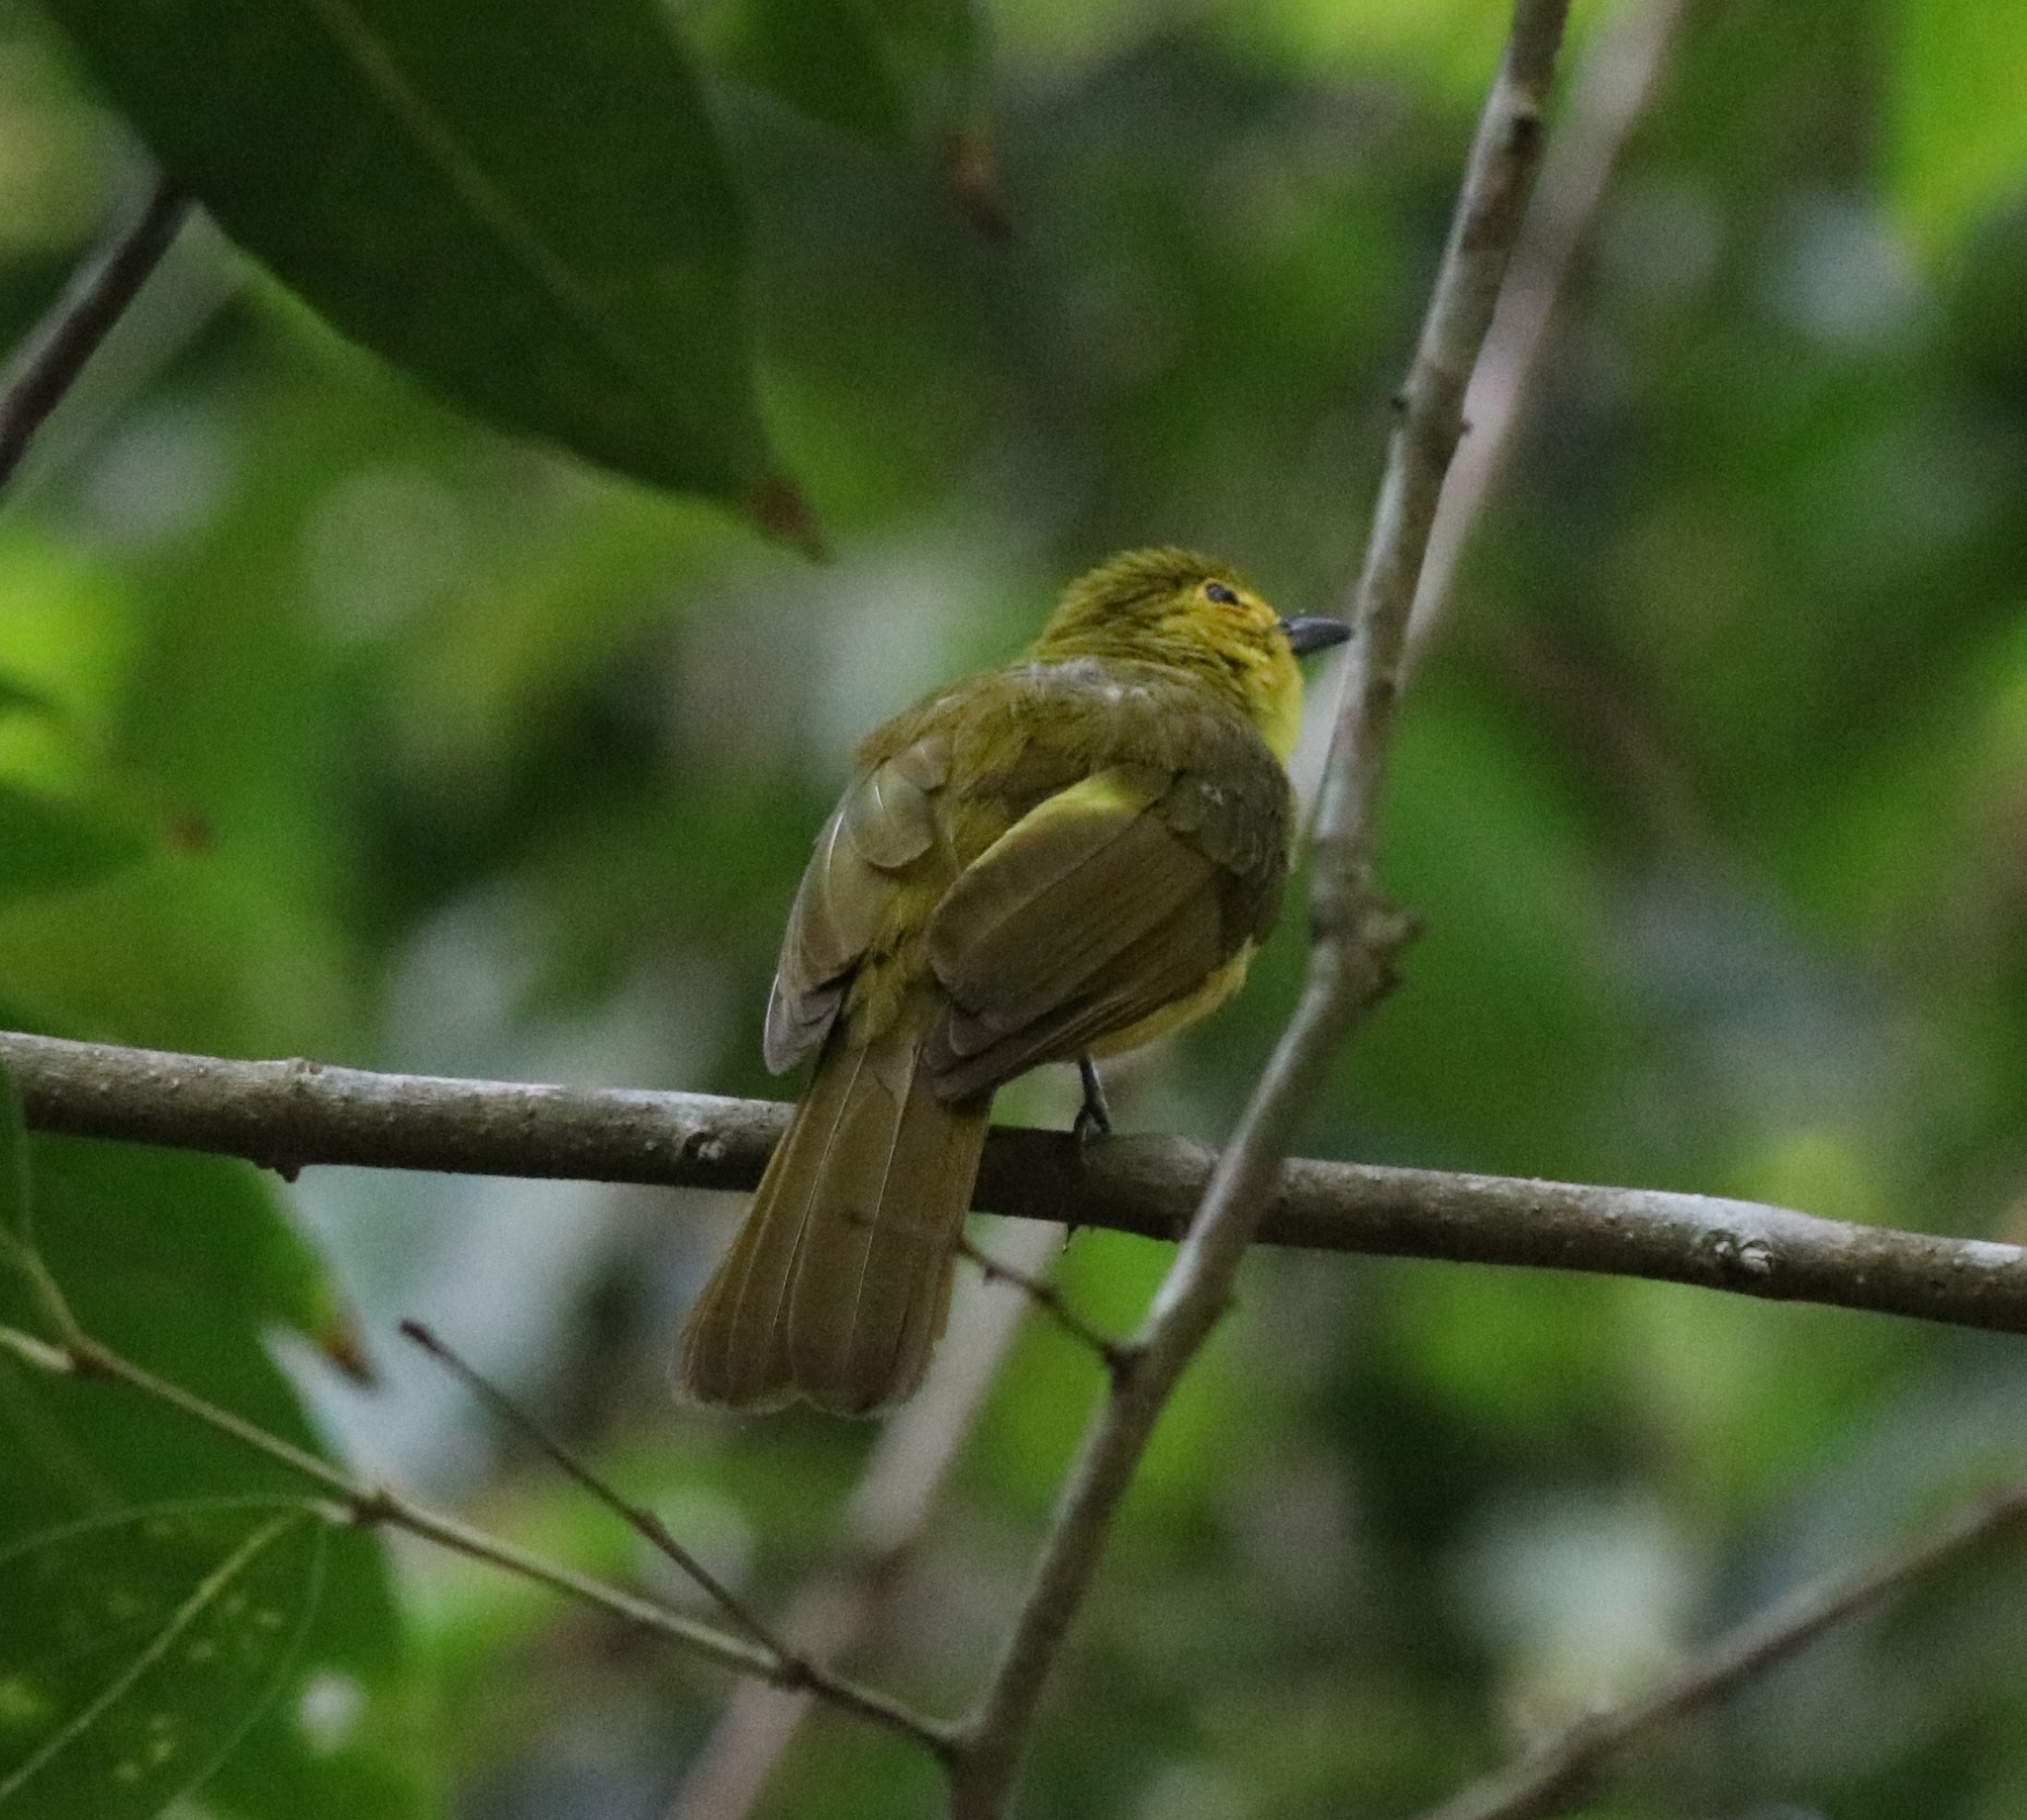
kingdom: Animalia
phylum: Chordata
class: Aves
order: Passeriformes
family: Pycnonotidae
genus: Acritillas
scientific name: Acritillas indica
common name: Yellow-browed bulbul
